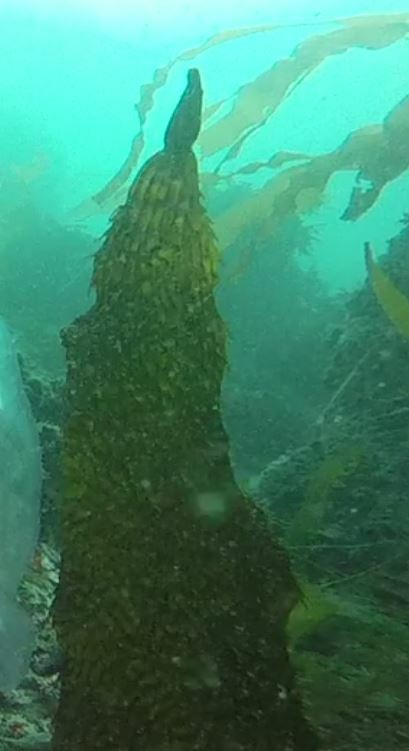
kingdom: Chromista
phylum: Ochrophyta
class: Phaeophyceae
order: Laminariales
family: Laminariaceae
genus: Macrocystis
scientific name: Macrocystis pyrifera
